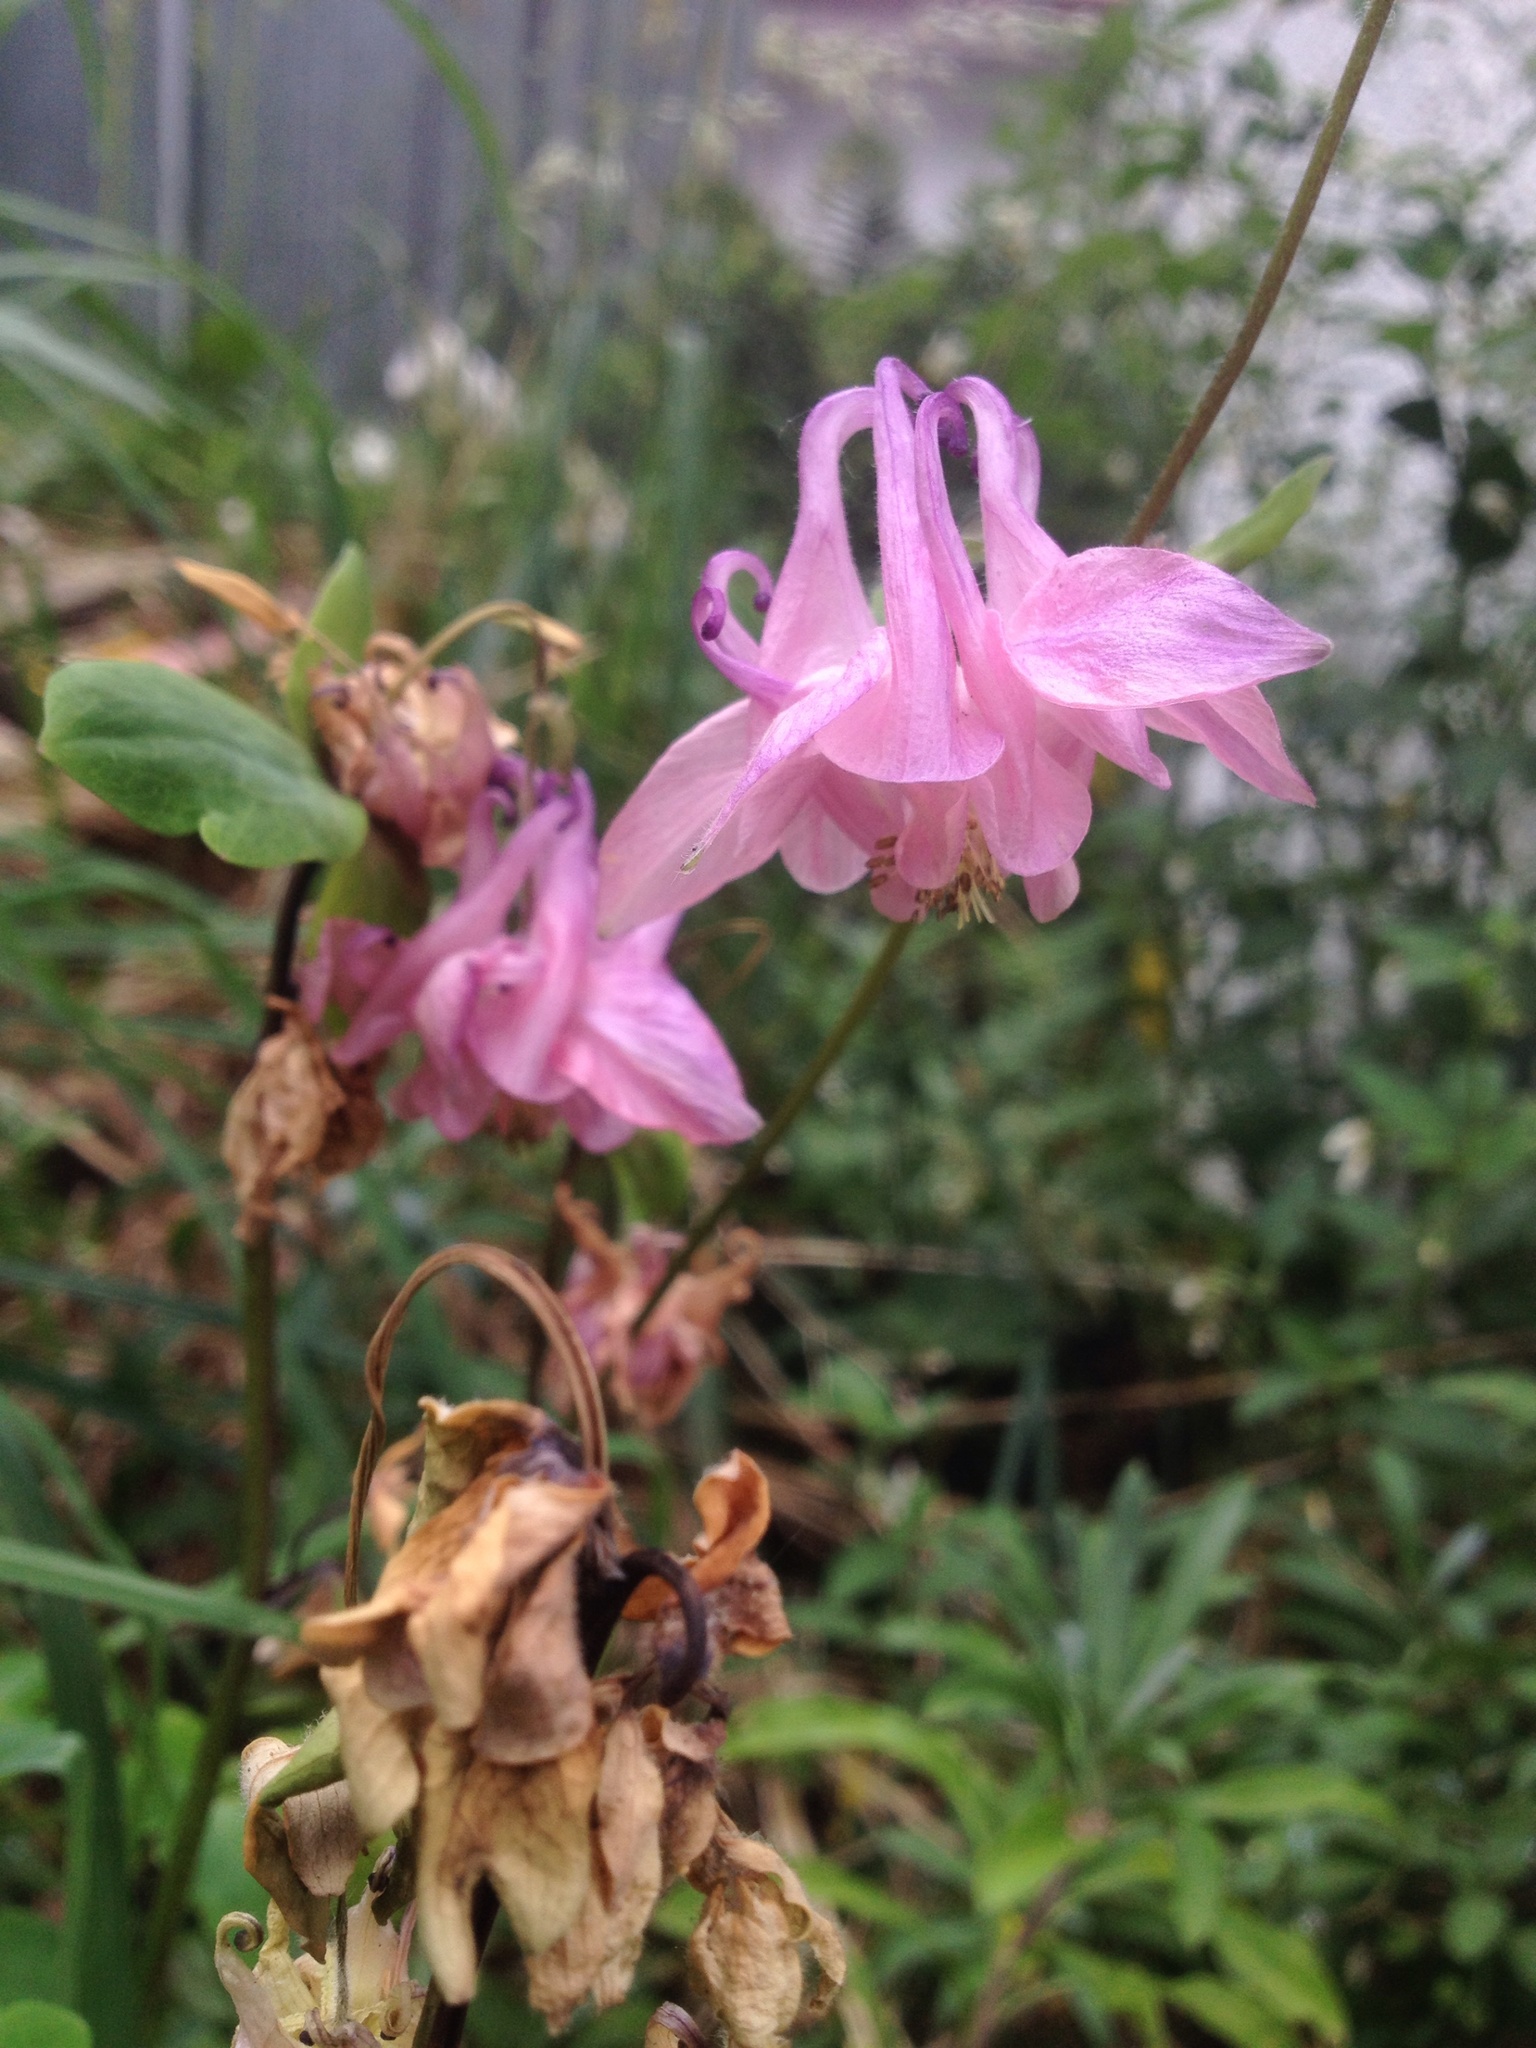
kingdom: Plantae
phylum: Tracheophyta
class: Magnoliopsida
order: Ranunculales
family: Ranunculaceae
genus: Aquilegia
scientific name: Aquilegia vulgaris
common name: Columbine
